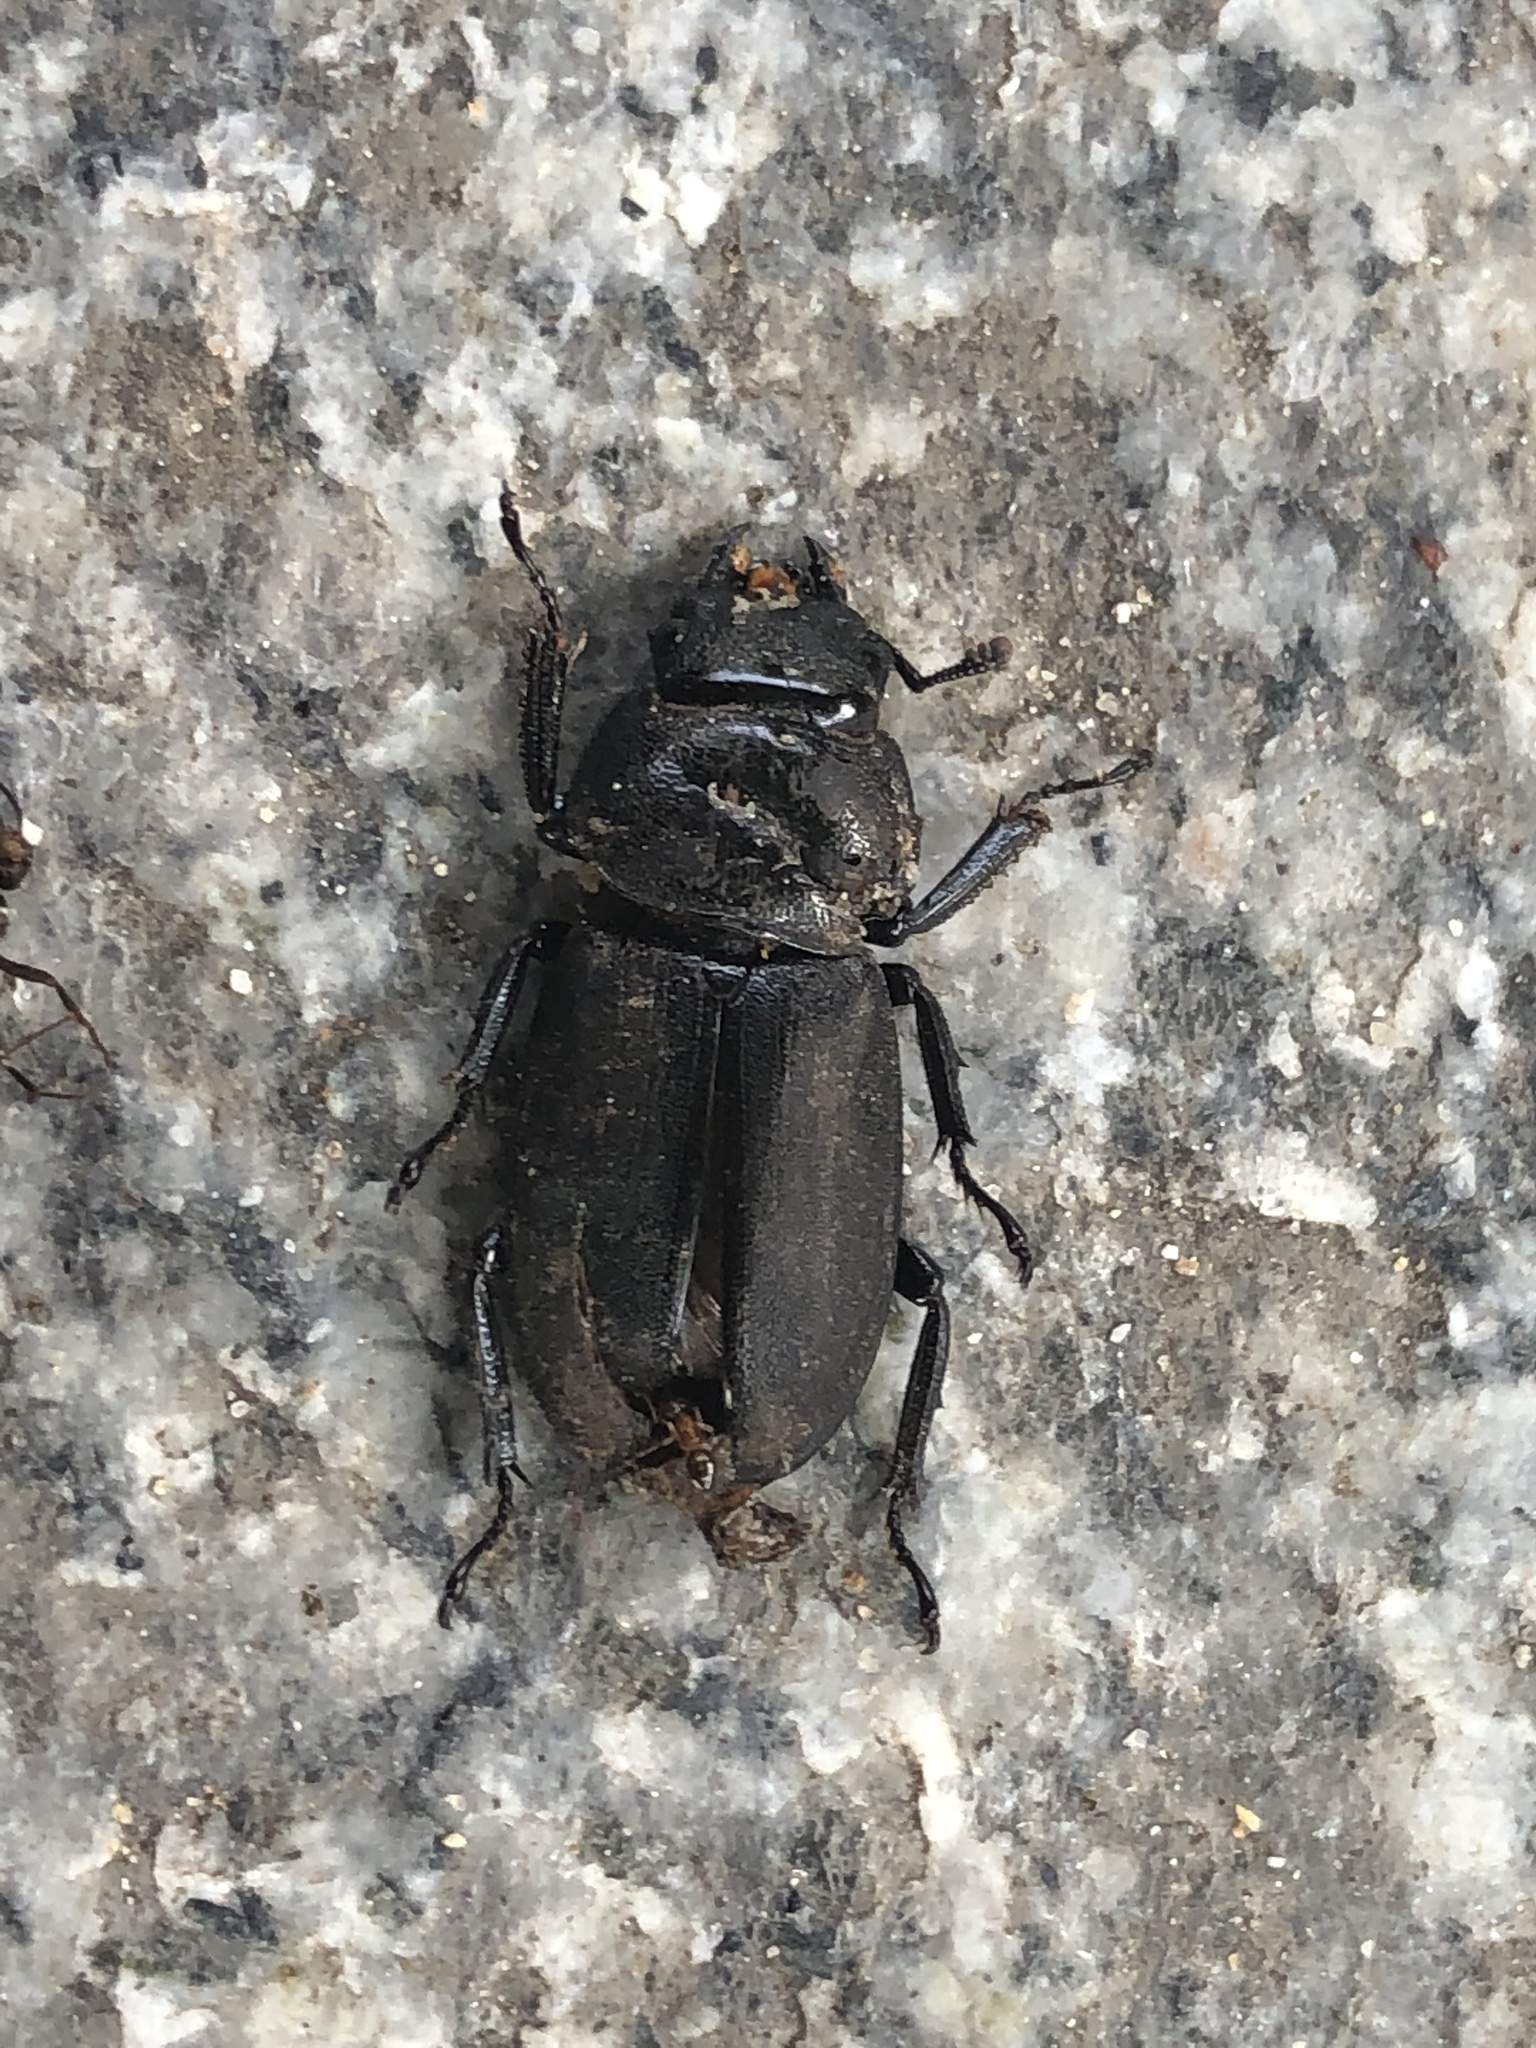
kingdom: Animalia
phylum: Arthropoda
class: Insecta
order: Coleoptera
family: Lucanidae
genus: Dorcus
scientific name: Dorcus rectus
